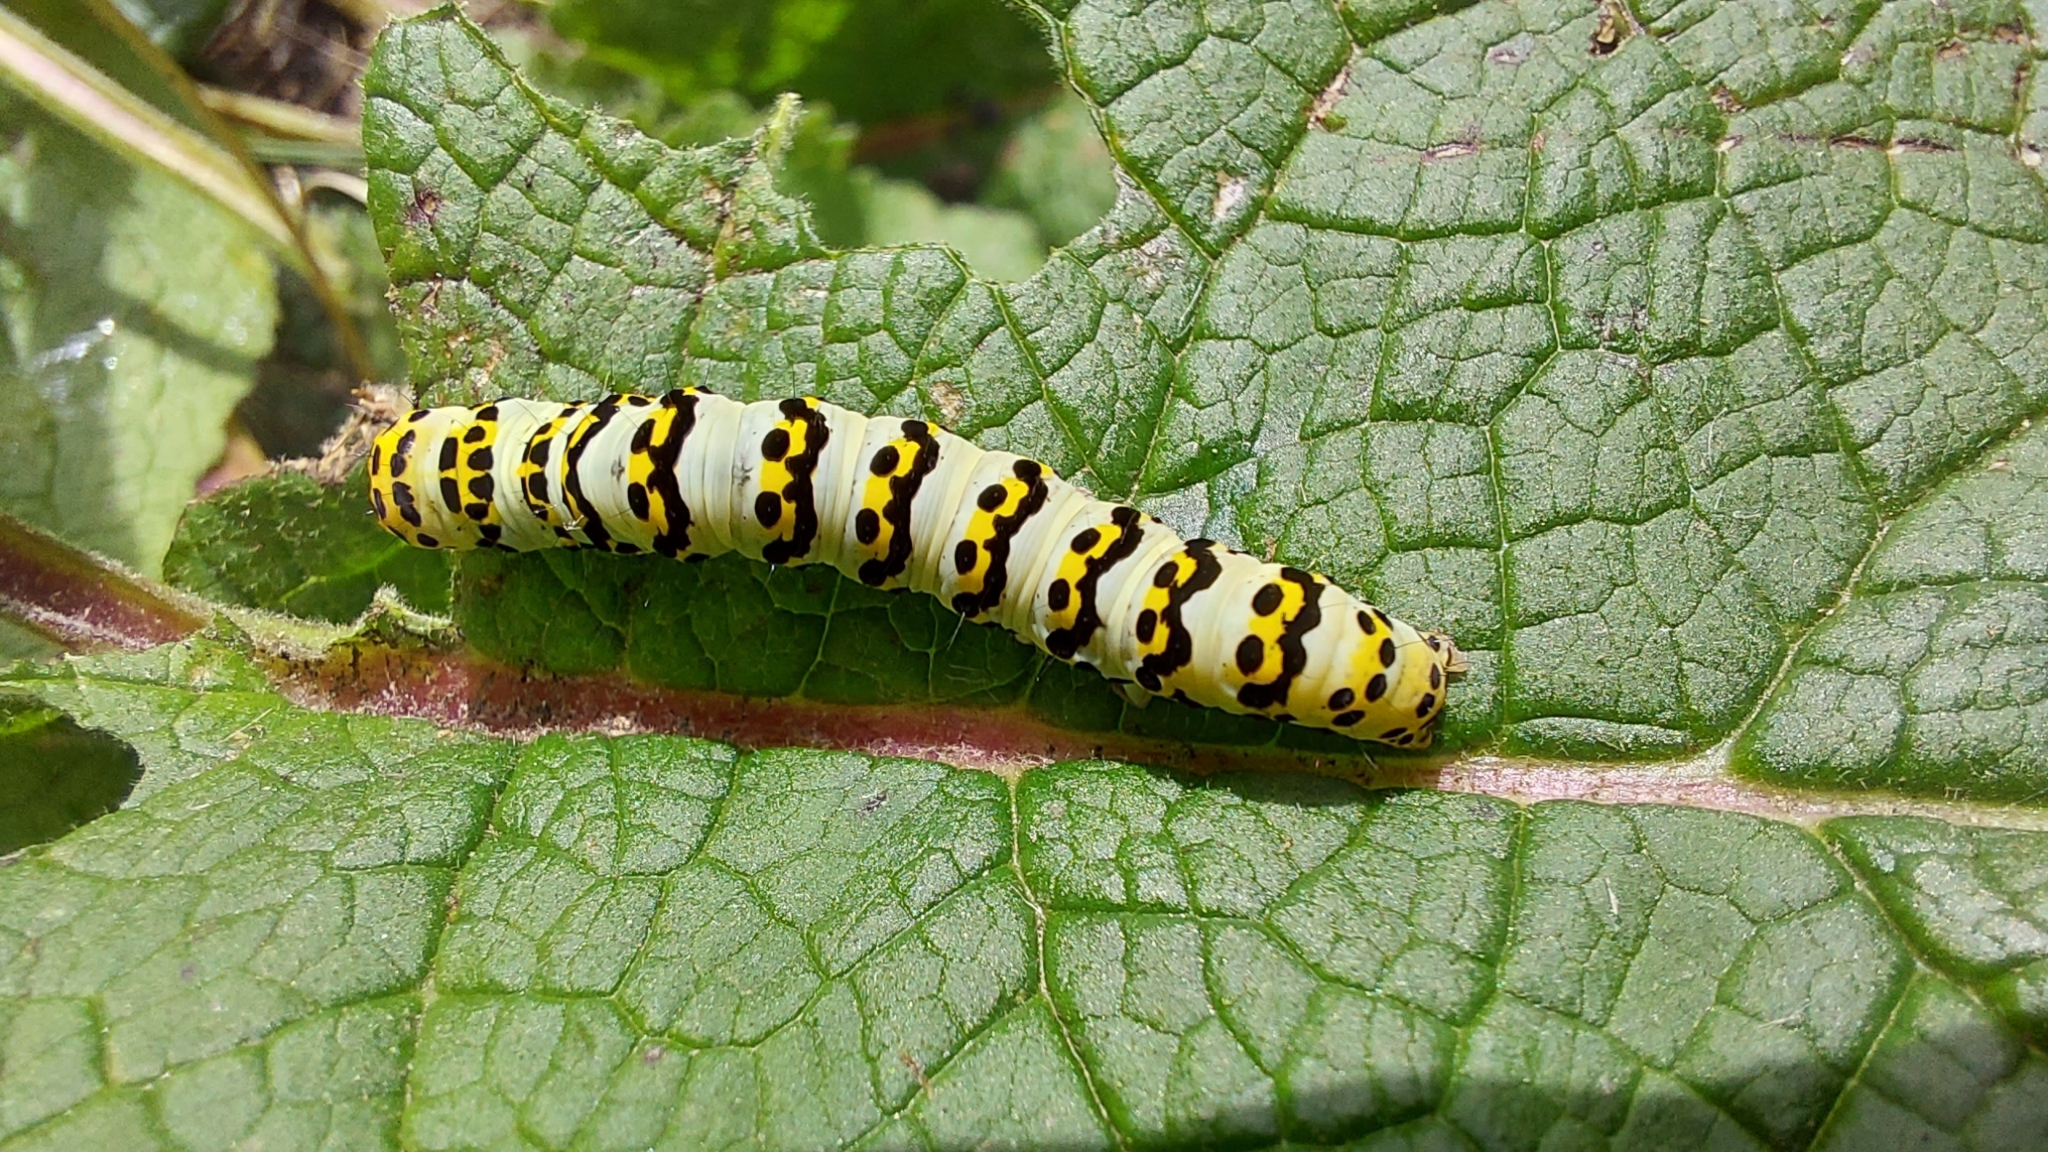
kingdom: Animalia
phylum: Arthropoda
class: Insecta
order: Lepidoptera
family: Noctuidae
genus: Cucullia
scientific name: Cucullia lychnitis
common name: Striped lychnis
